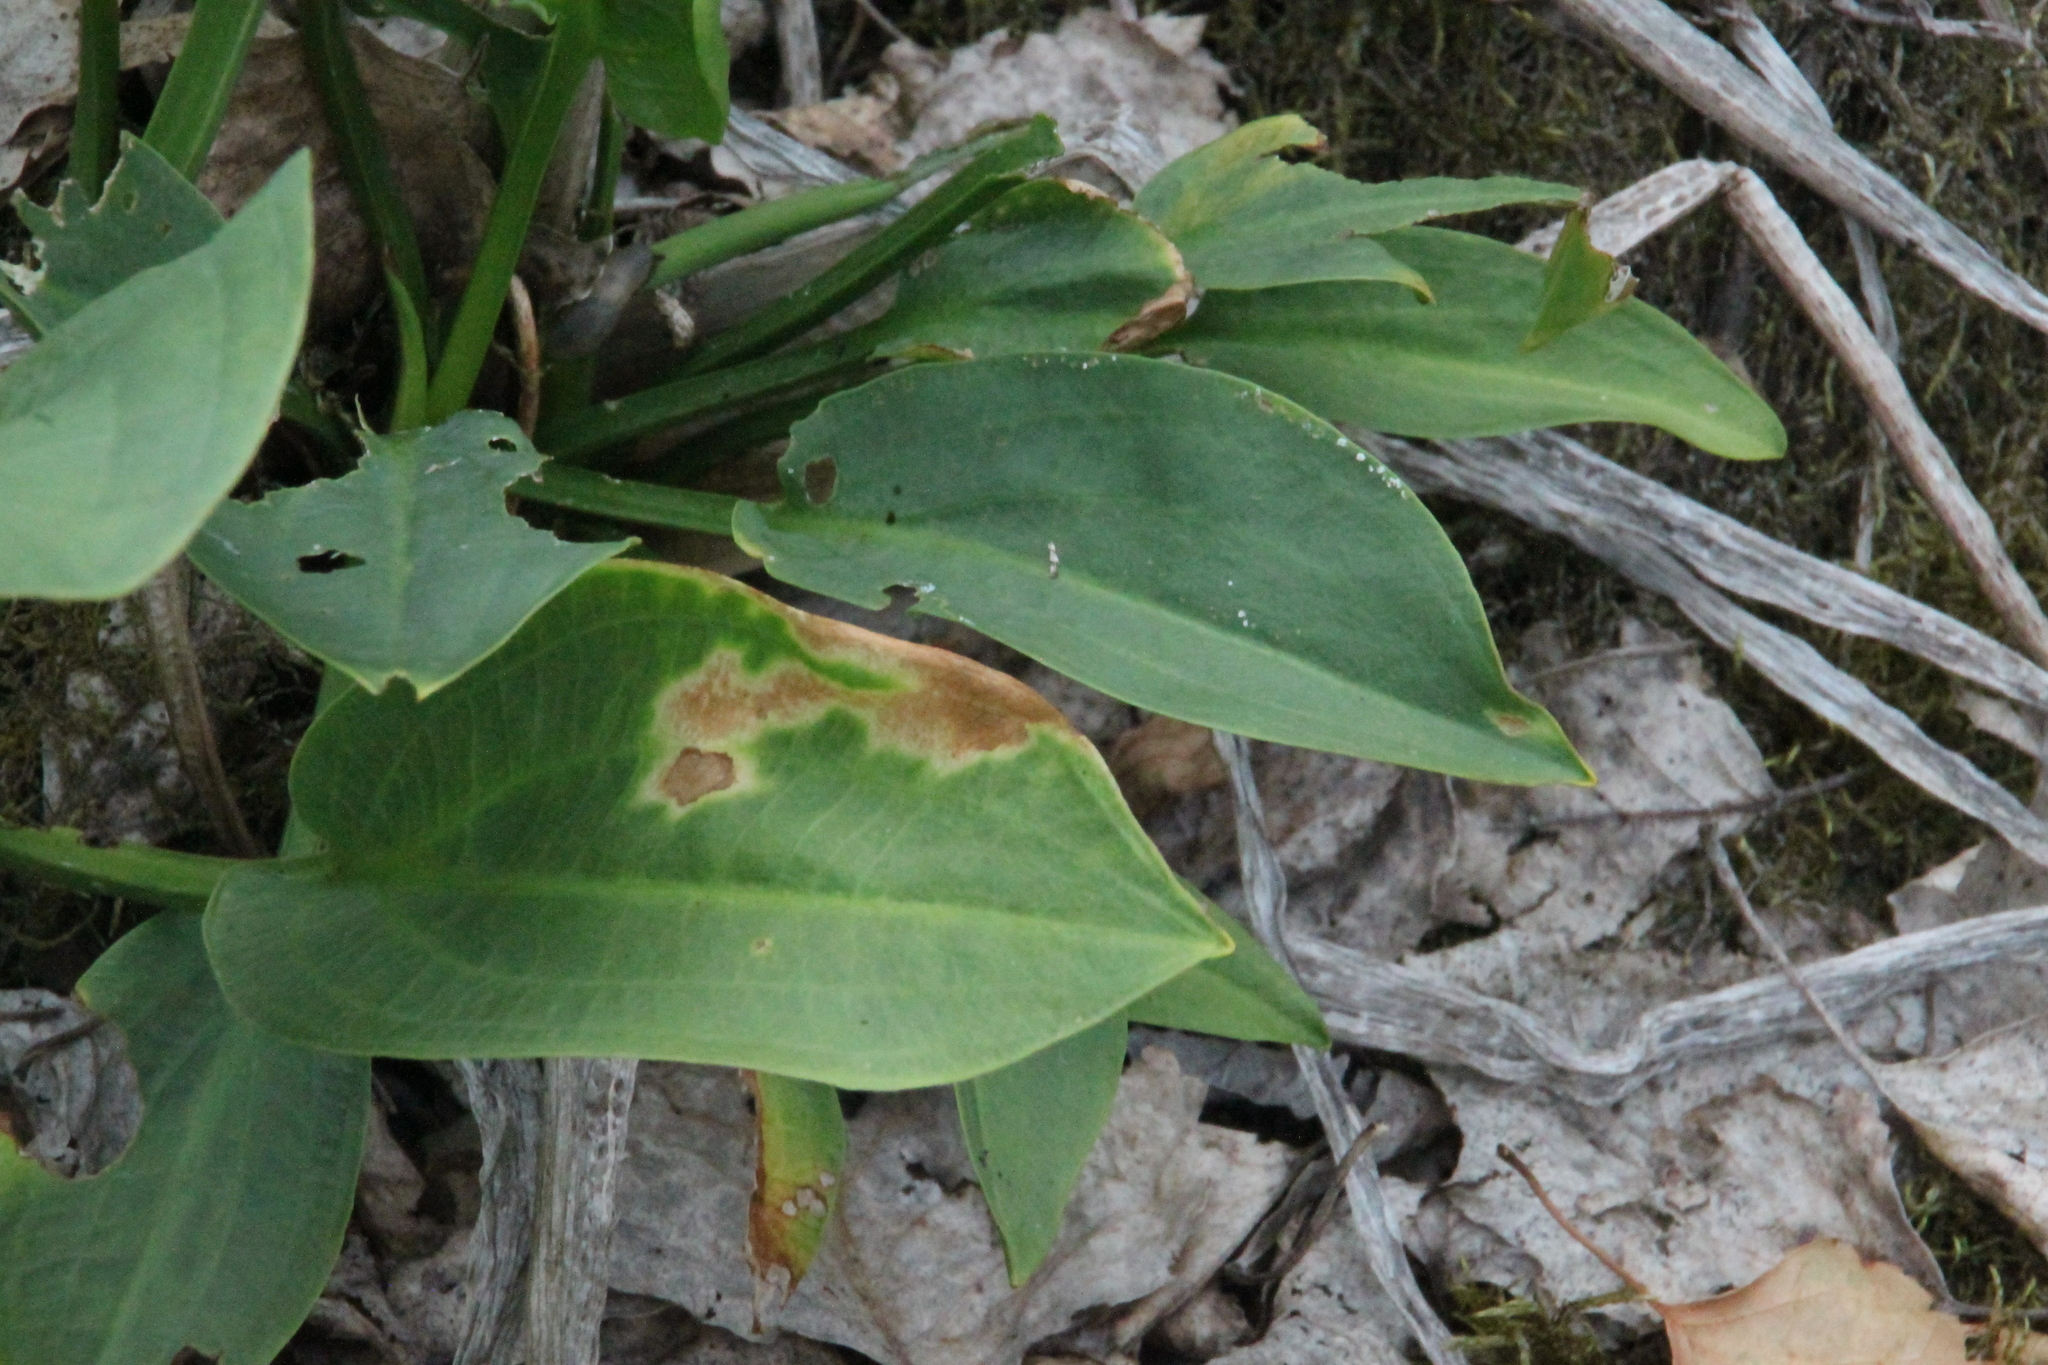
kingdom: Plantae
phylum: Tracheophyta
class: Liliopsida
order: Alismatales
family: Alismataceae
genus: Alisma
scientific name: Alisma plantago-aquatica
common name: Water-plantain
